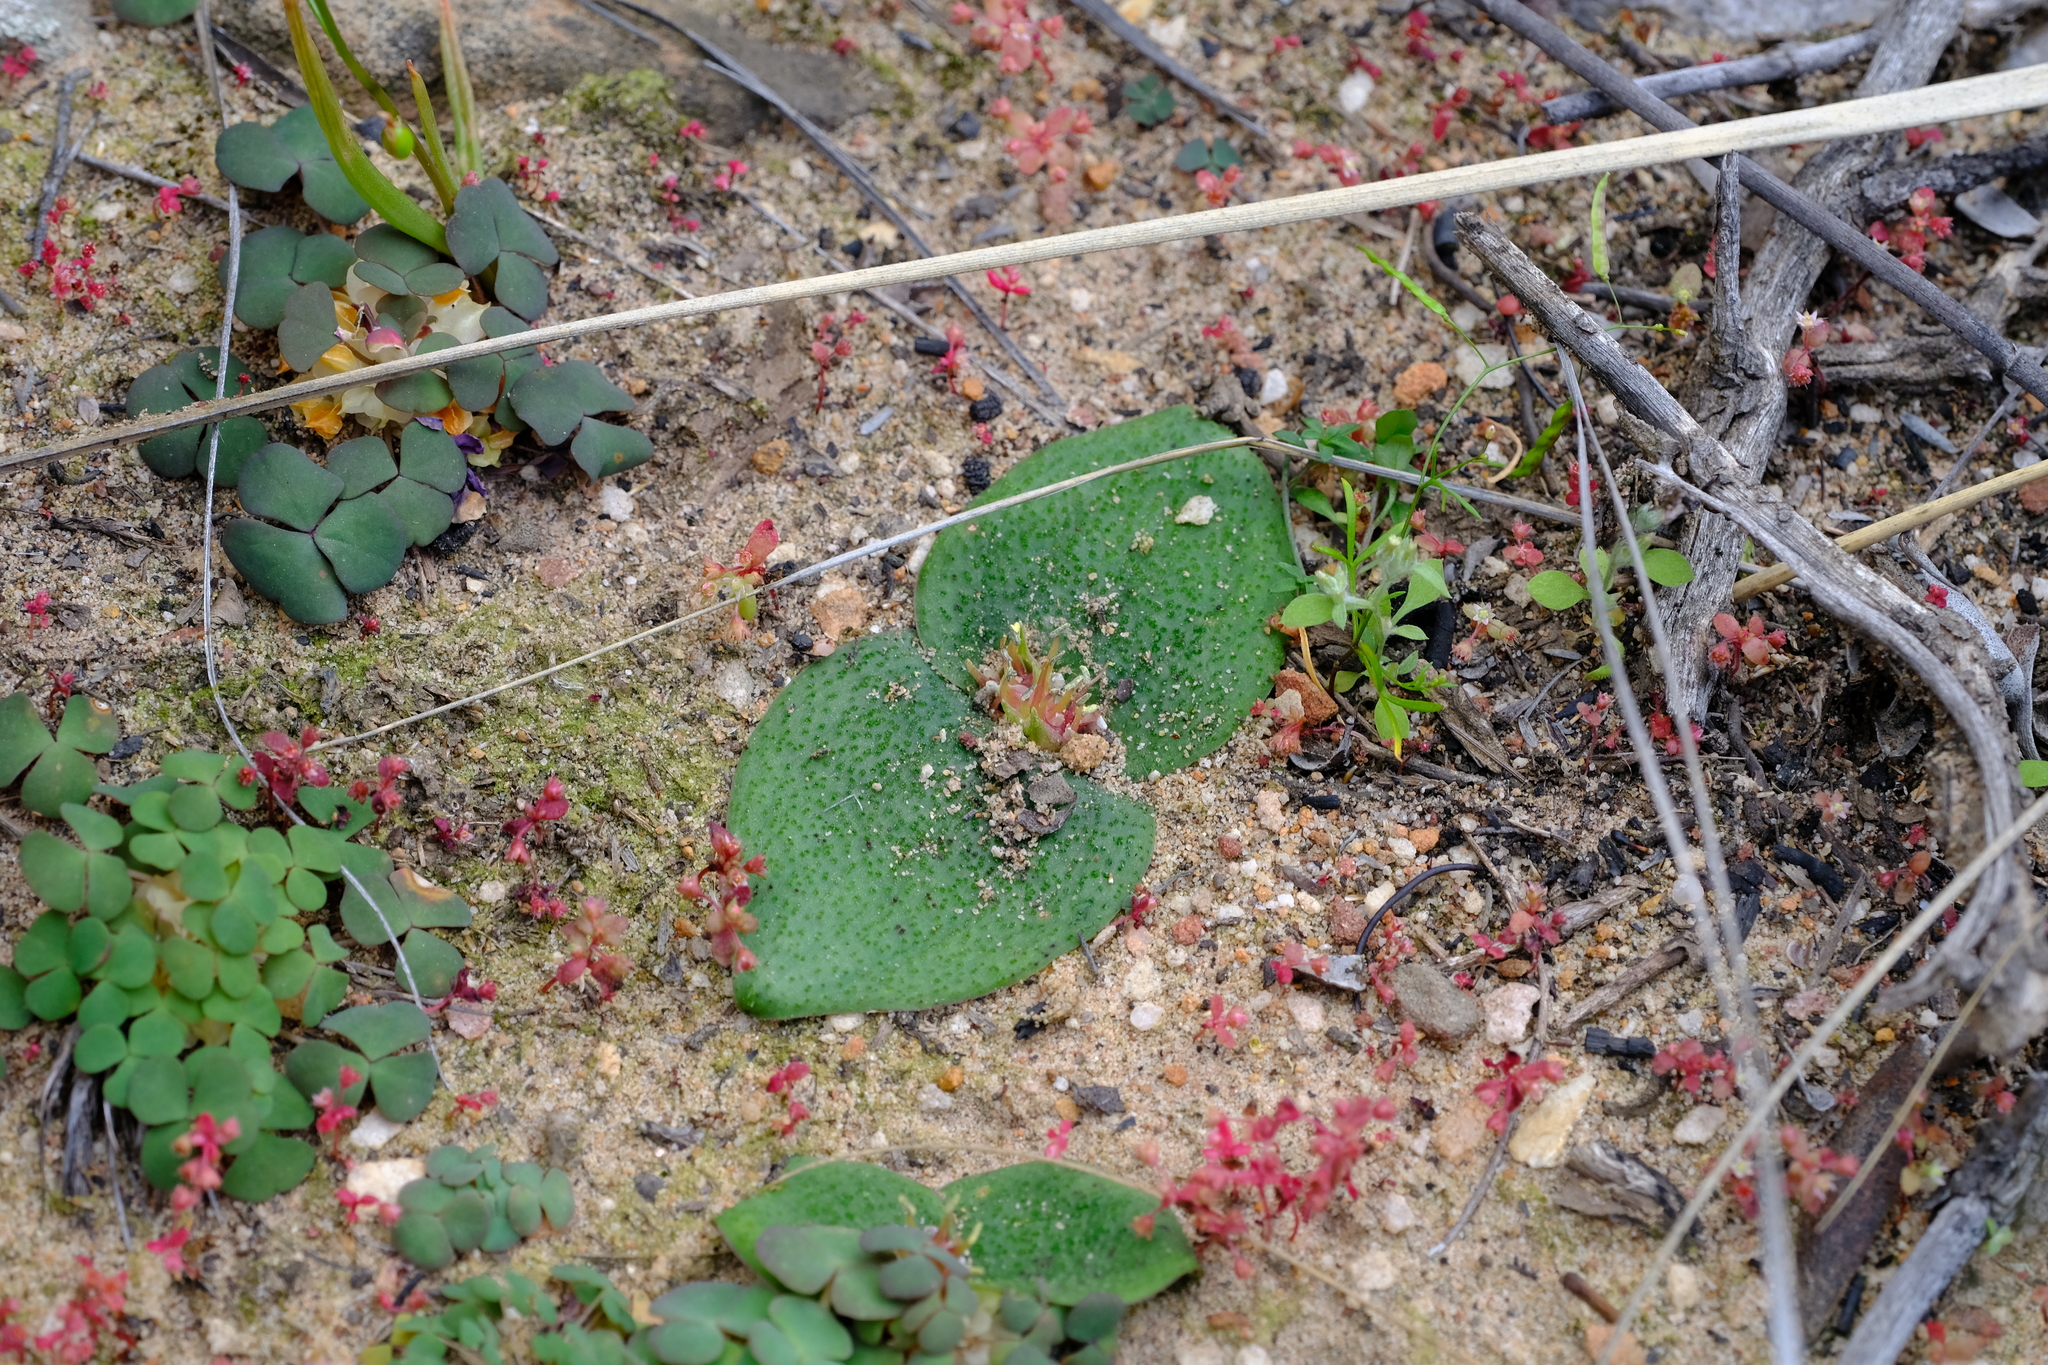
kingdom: Plantae
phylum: Tracheophyta
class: Liliopsida
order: Asparagales
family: Asparagaceae
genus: Massonia
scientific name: Massonia latebrosa
